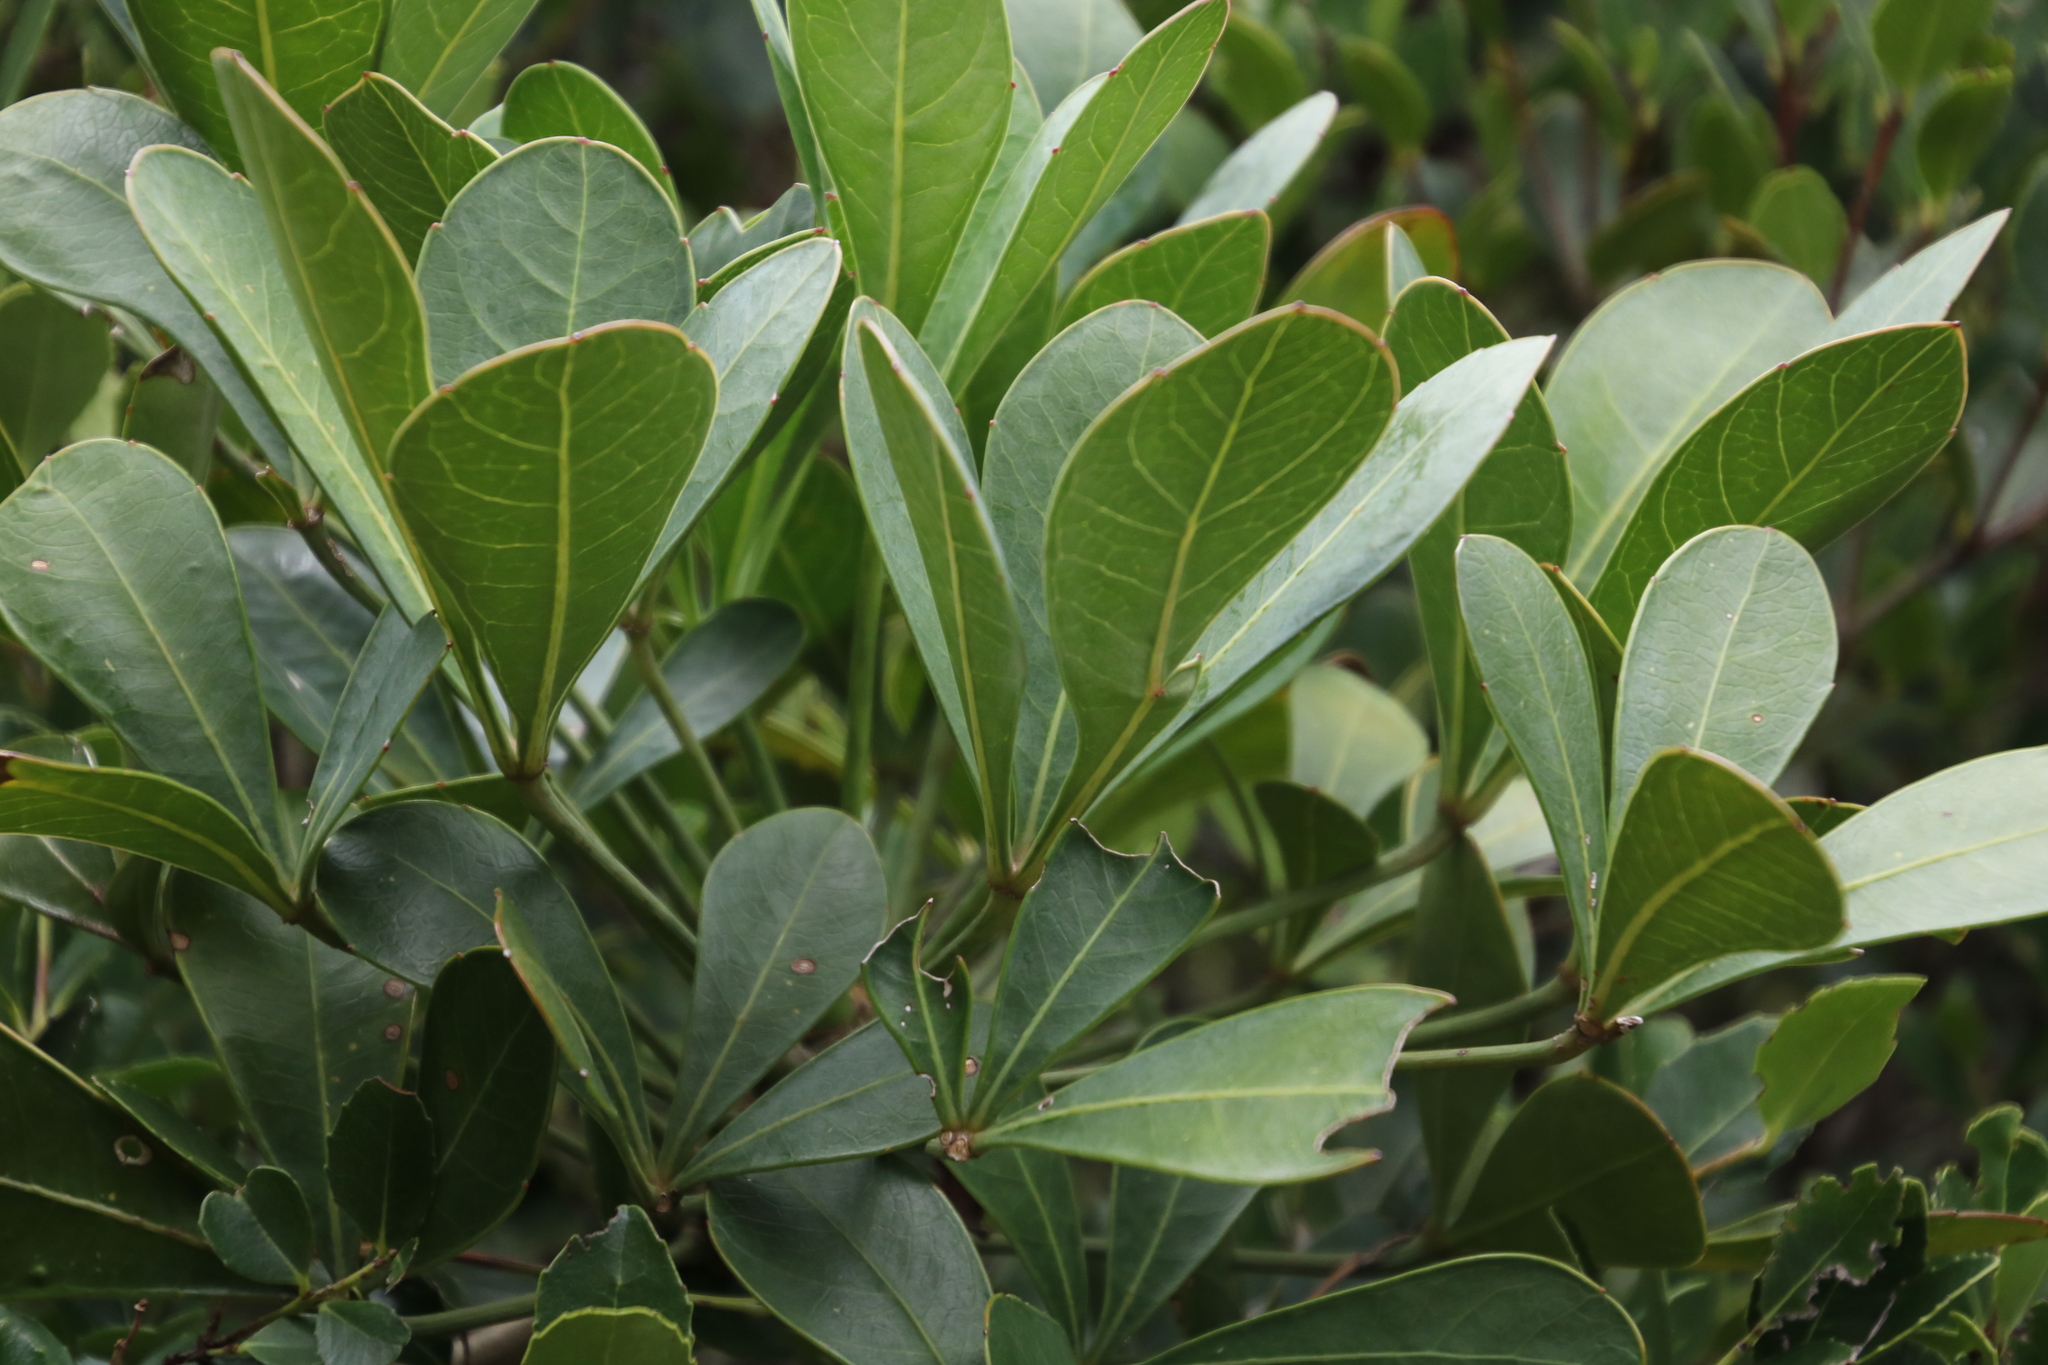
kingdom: Plantae
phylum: Tracheophyta
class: Magnoliopsida
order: Apiales
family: Araliaceae
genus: Cussonia
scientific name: Cussonia thyrsiflora
